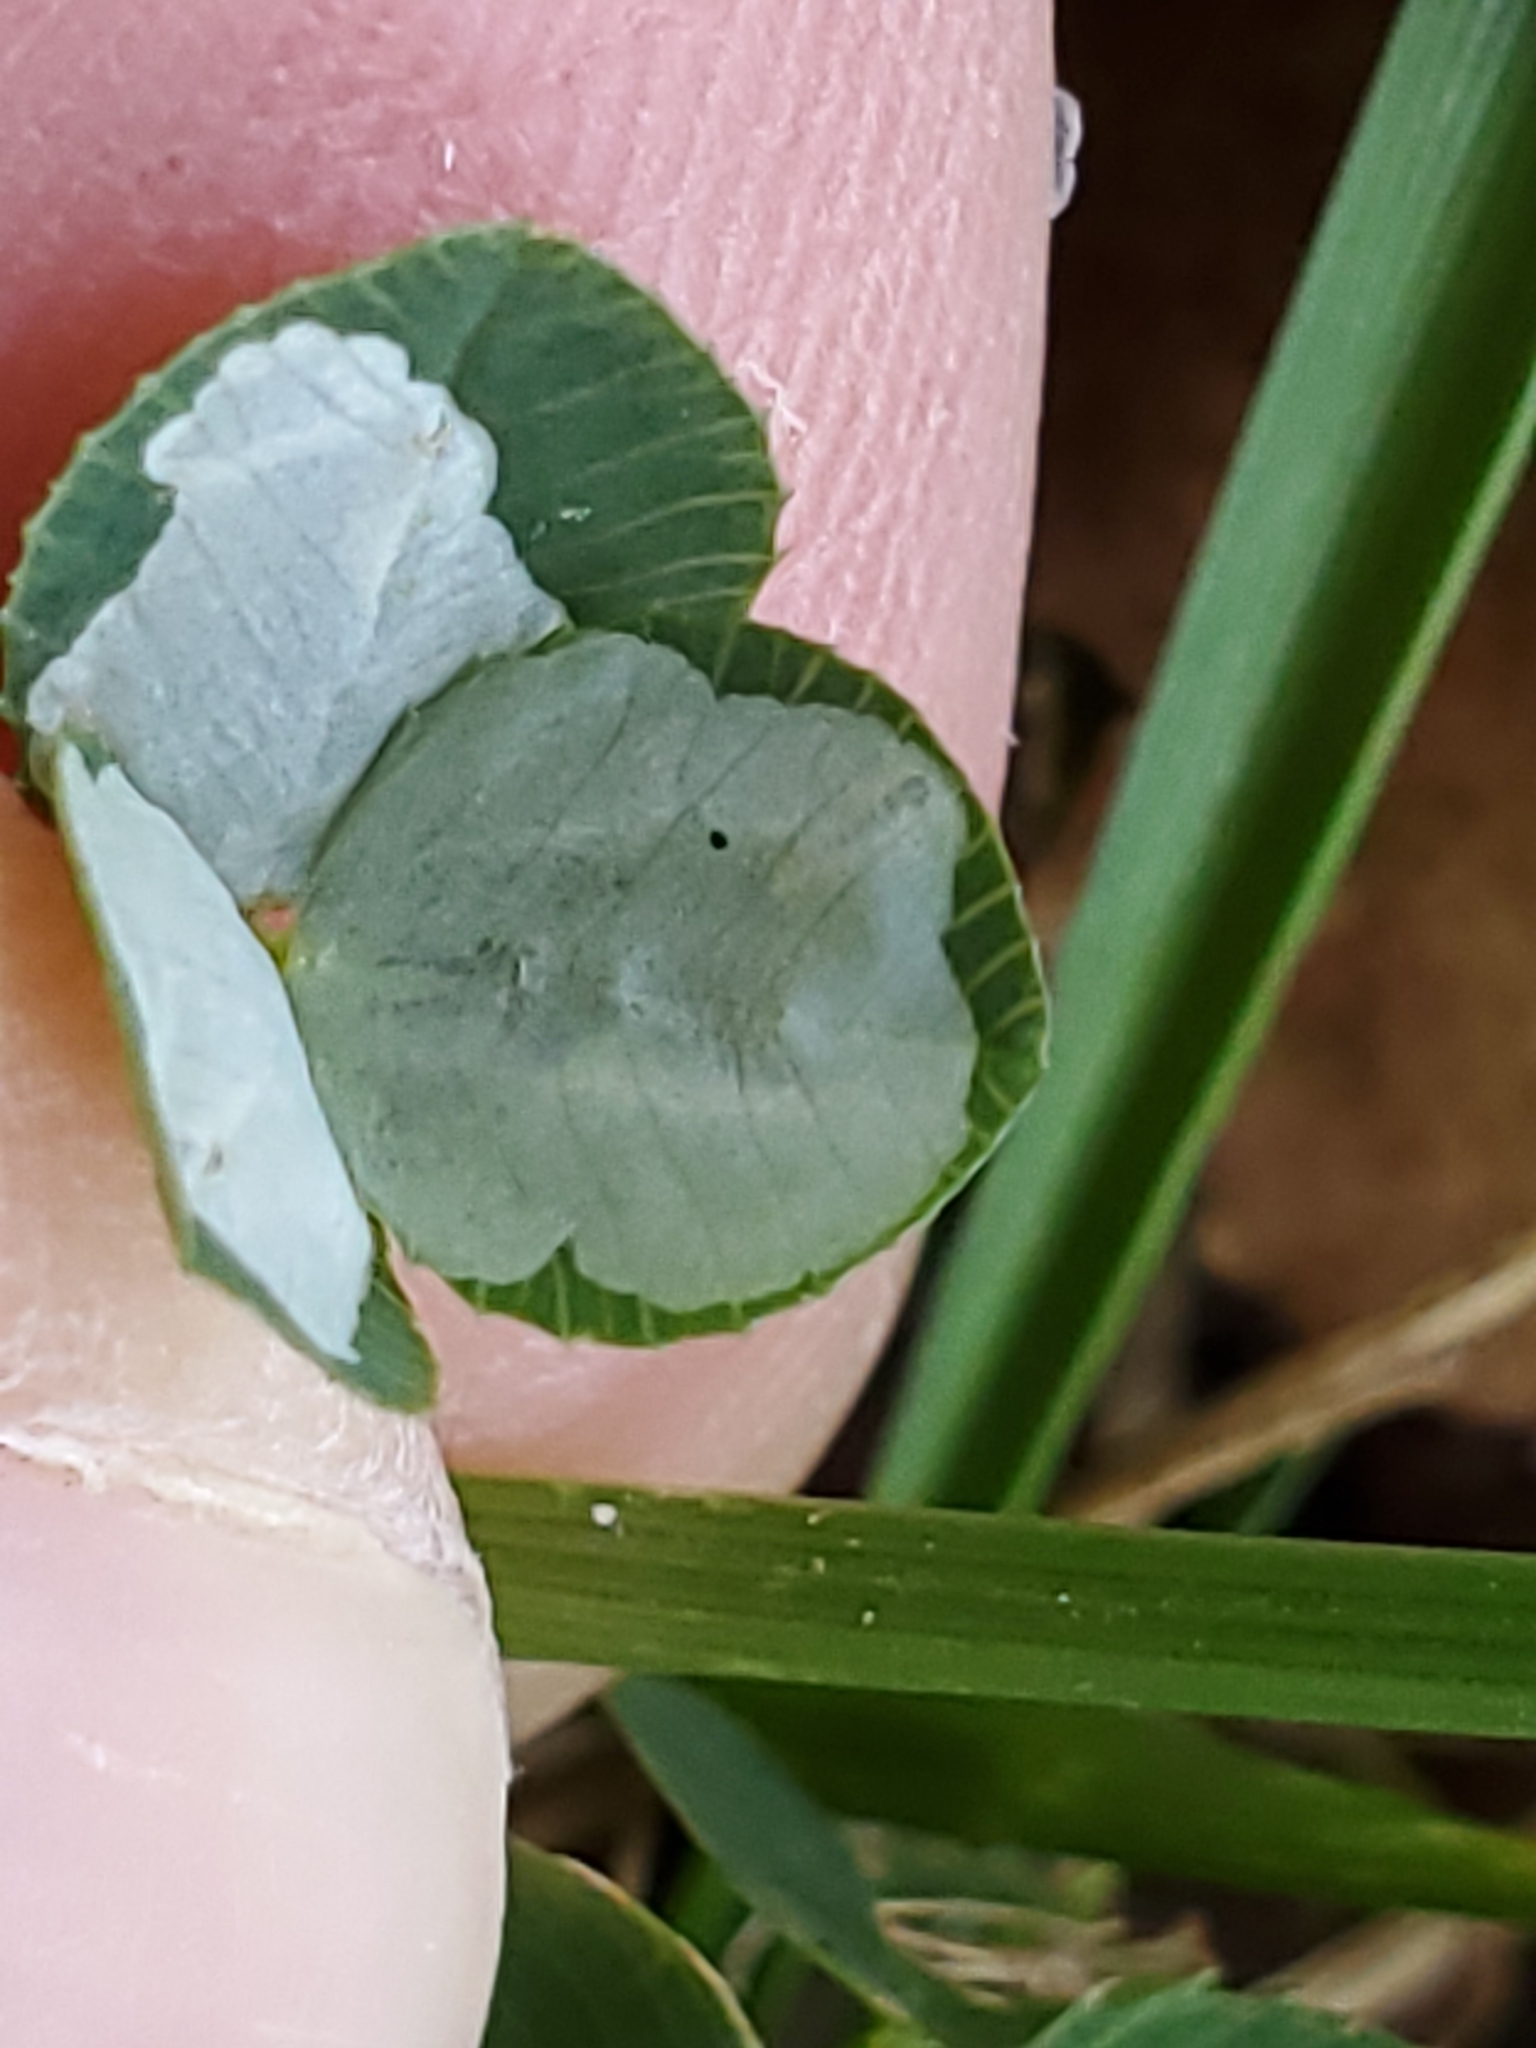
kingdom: Animalia
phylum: Arthropoda
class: Insecta
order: Lepidoptera
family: Gracillariidae
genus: Porphyrosela
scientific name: Porphyrosela minuta
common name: Leaf miner moth
